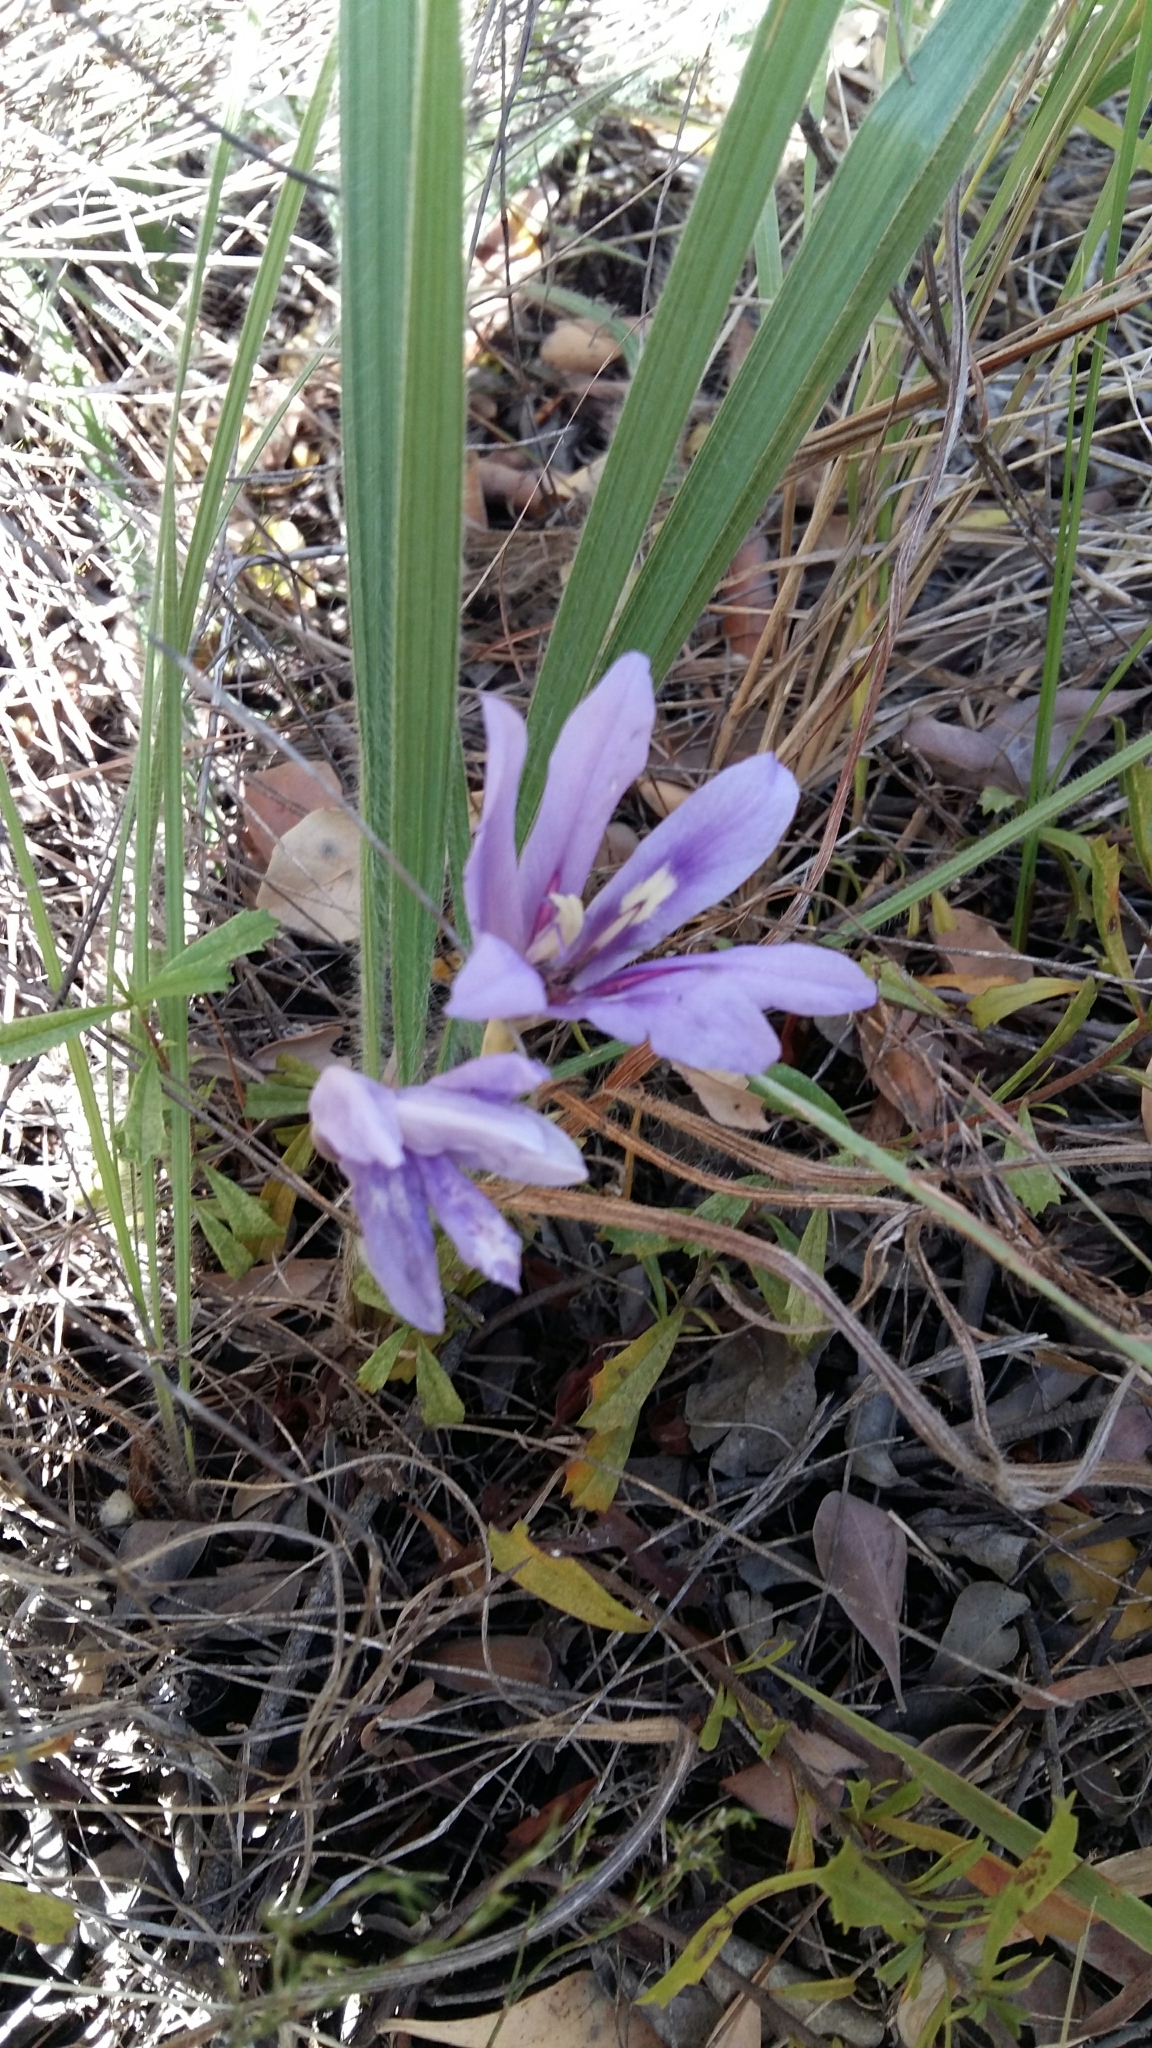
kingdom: Plantae
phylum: Tracheophyta
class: Liliopsida
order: Asparagales
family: Iridaceae
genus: Babiana
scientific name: Babiana sambucina
